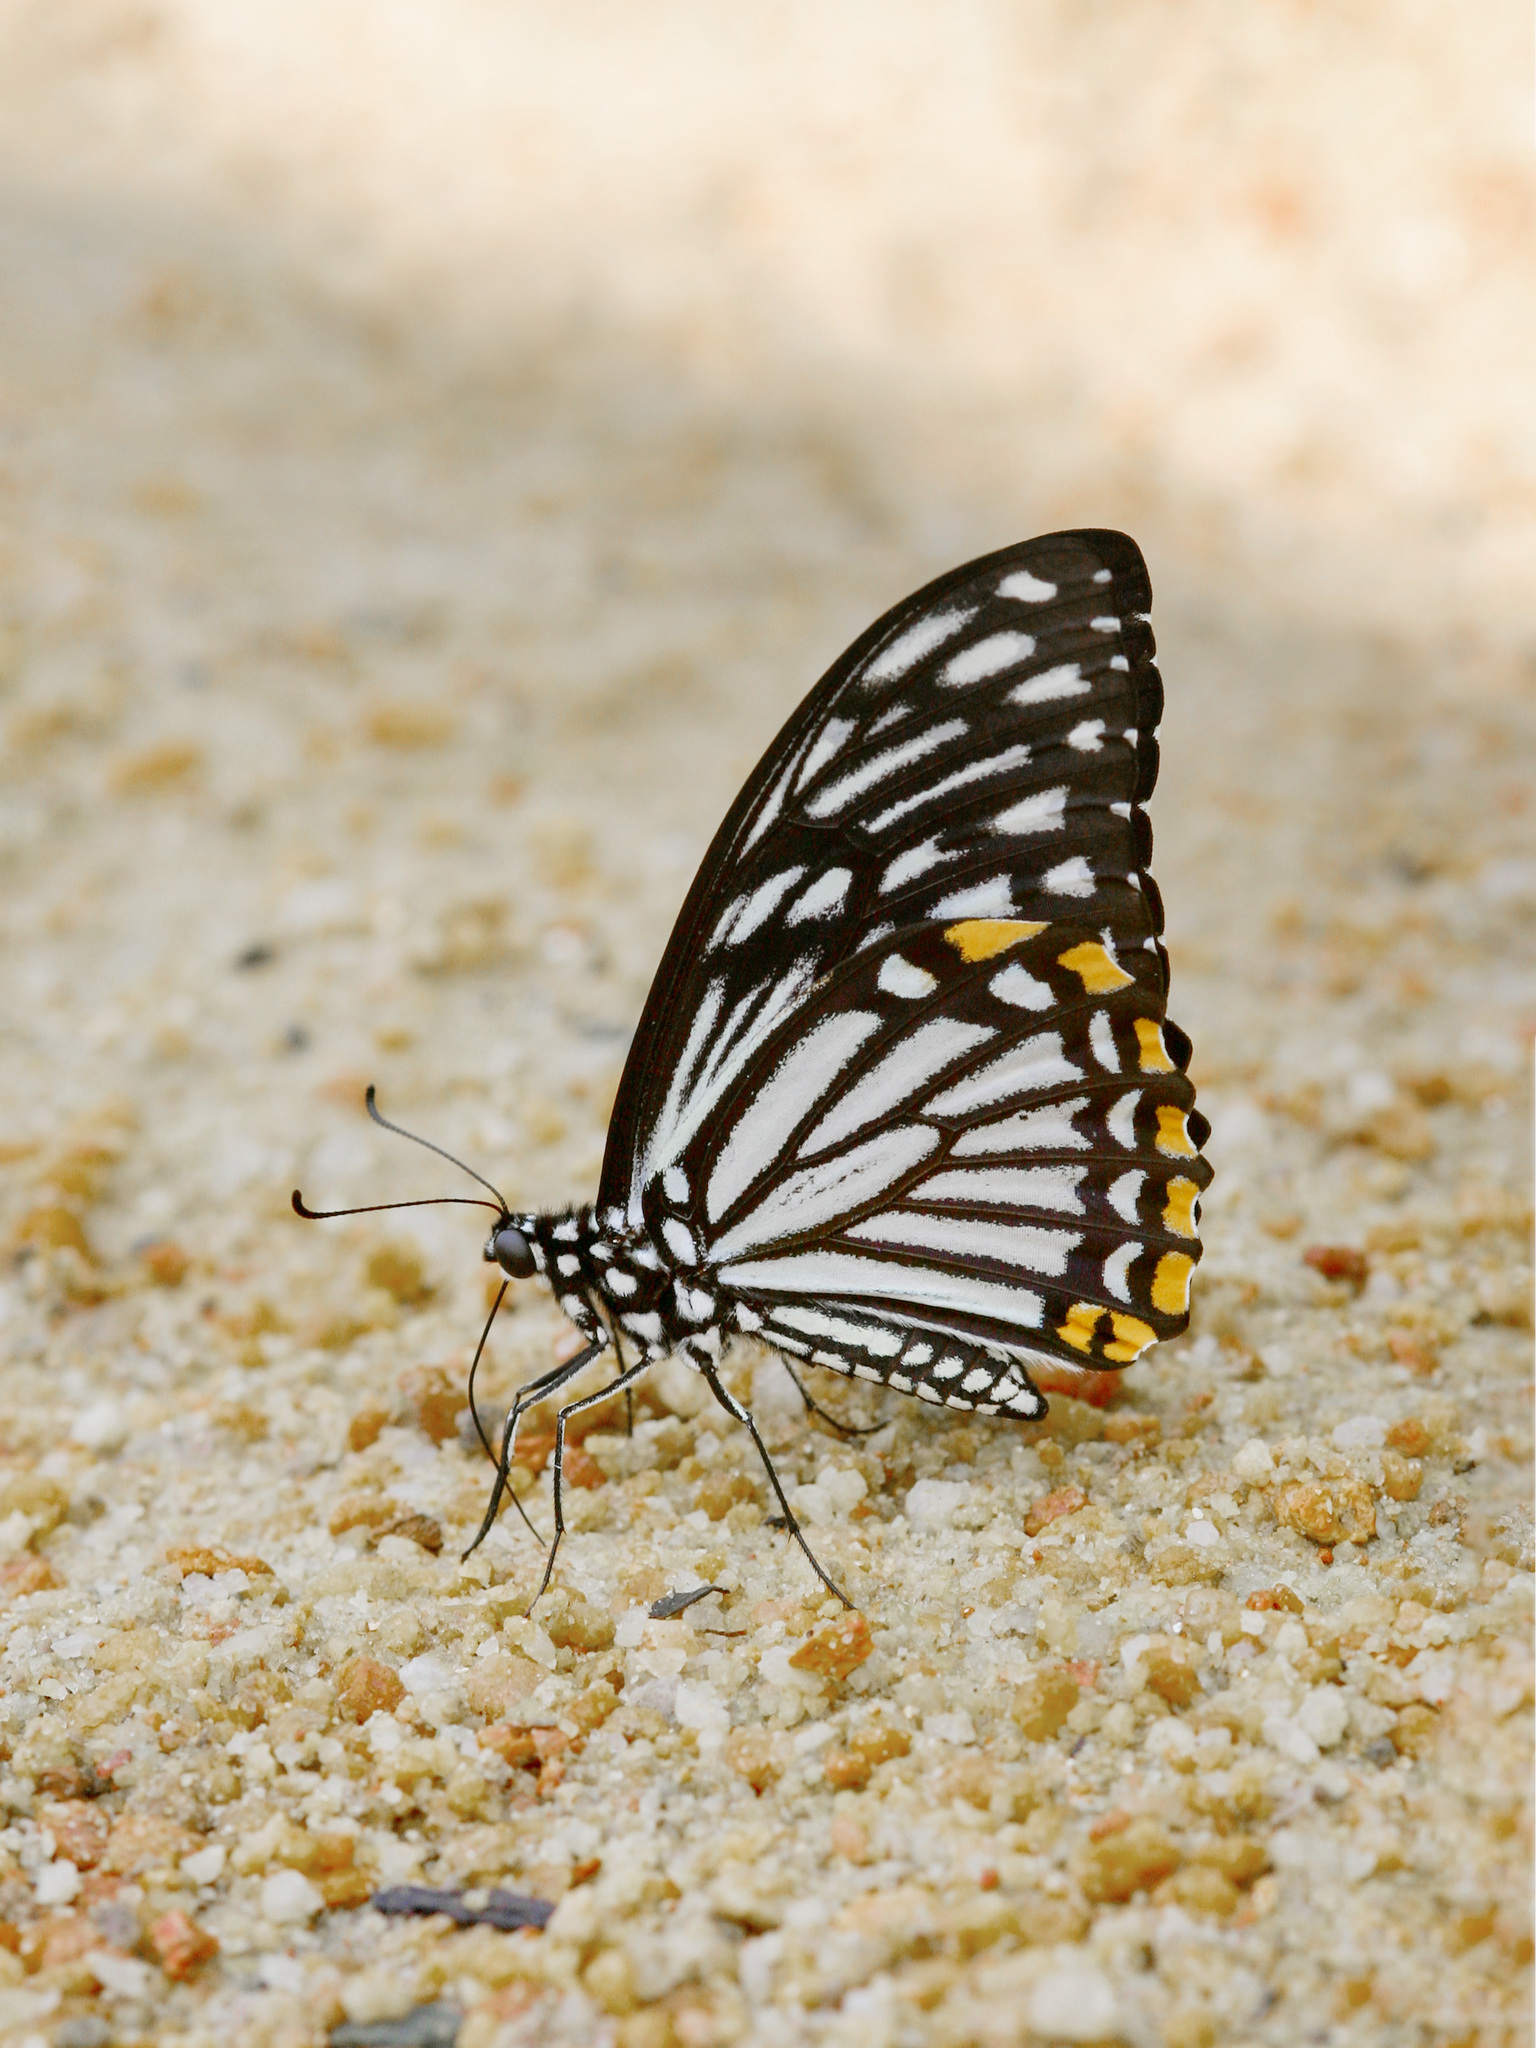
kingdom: Animalia
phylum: Arthropoda
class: Insecta
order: Lepidoptera
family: Papilionidae
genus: Chilasa
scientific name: Chilasa clytia
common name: Common mime
